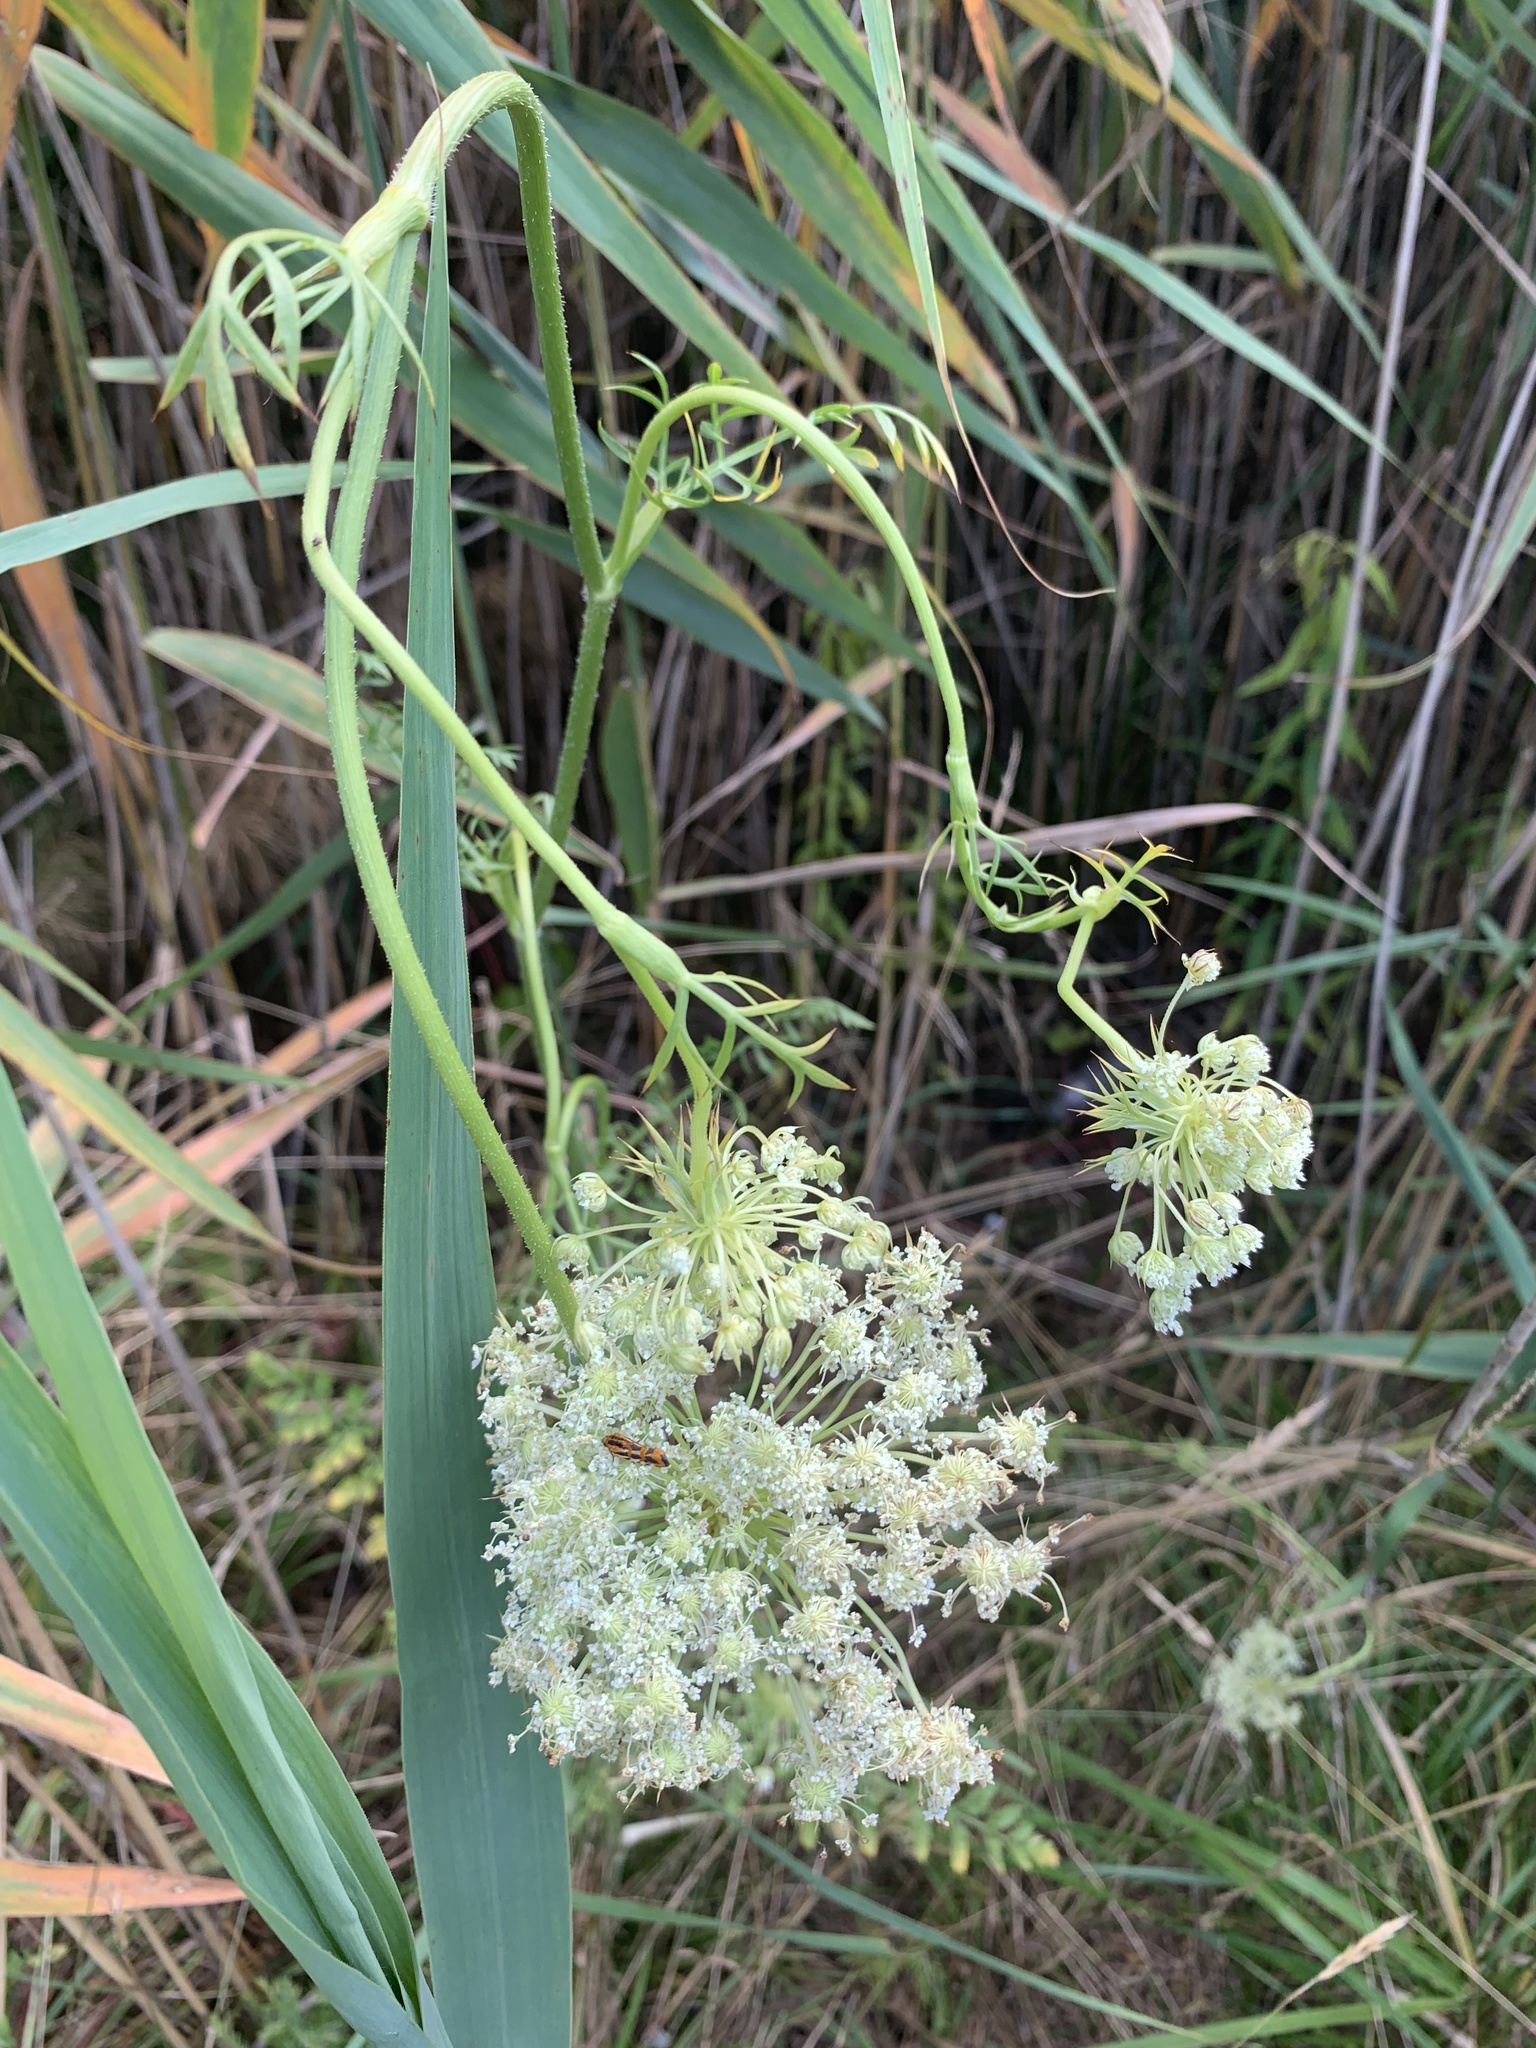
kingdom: Plantae
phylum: Tracheophyta
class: Magnoliopsida
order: Apiales
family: Apiaceae
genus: Daucus
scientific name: Daucus carota
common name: Wild carrot
